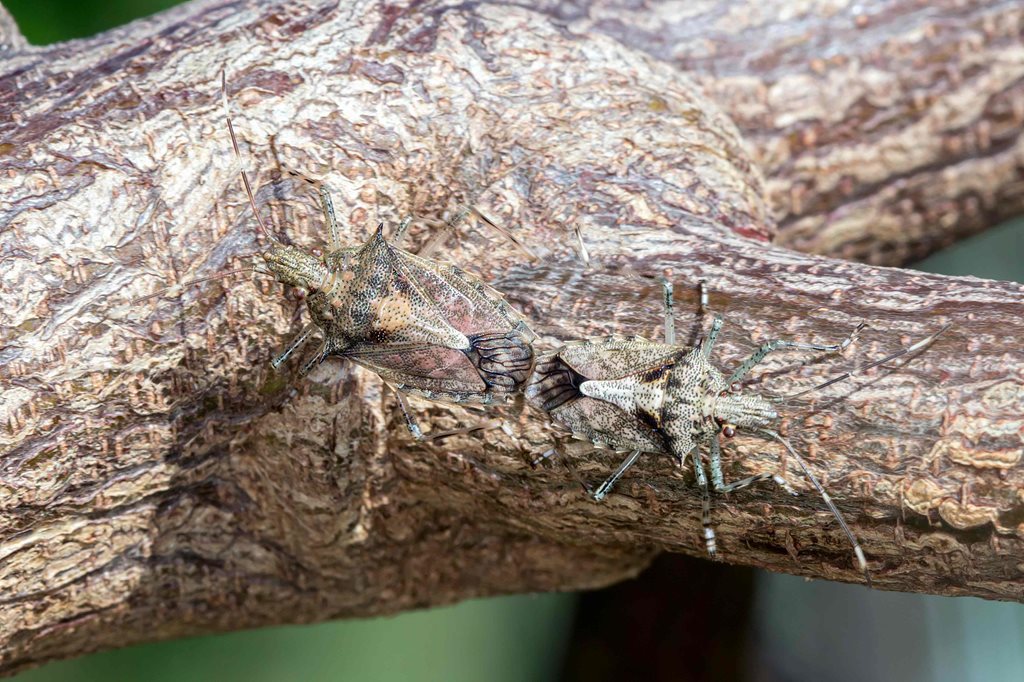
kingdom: Animalia
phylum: Arthropoda
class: Insecta
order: Hemiptera
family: Pentatomidae
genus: Bromocoris
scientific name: Bromocoris
